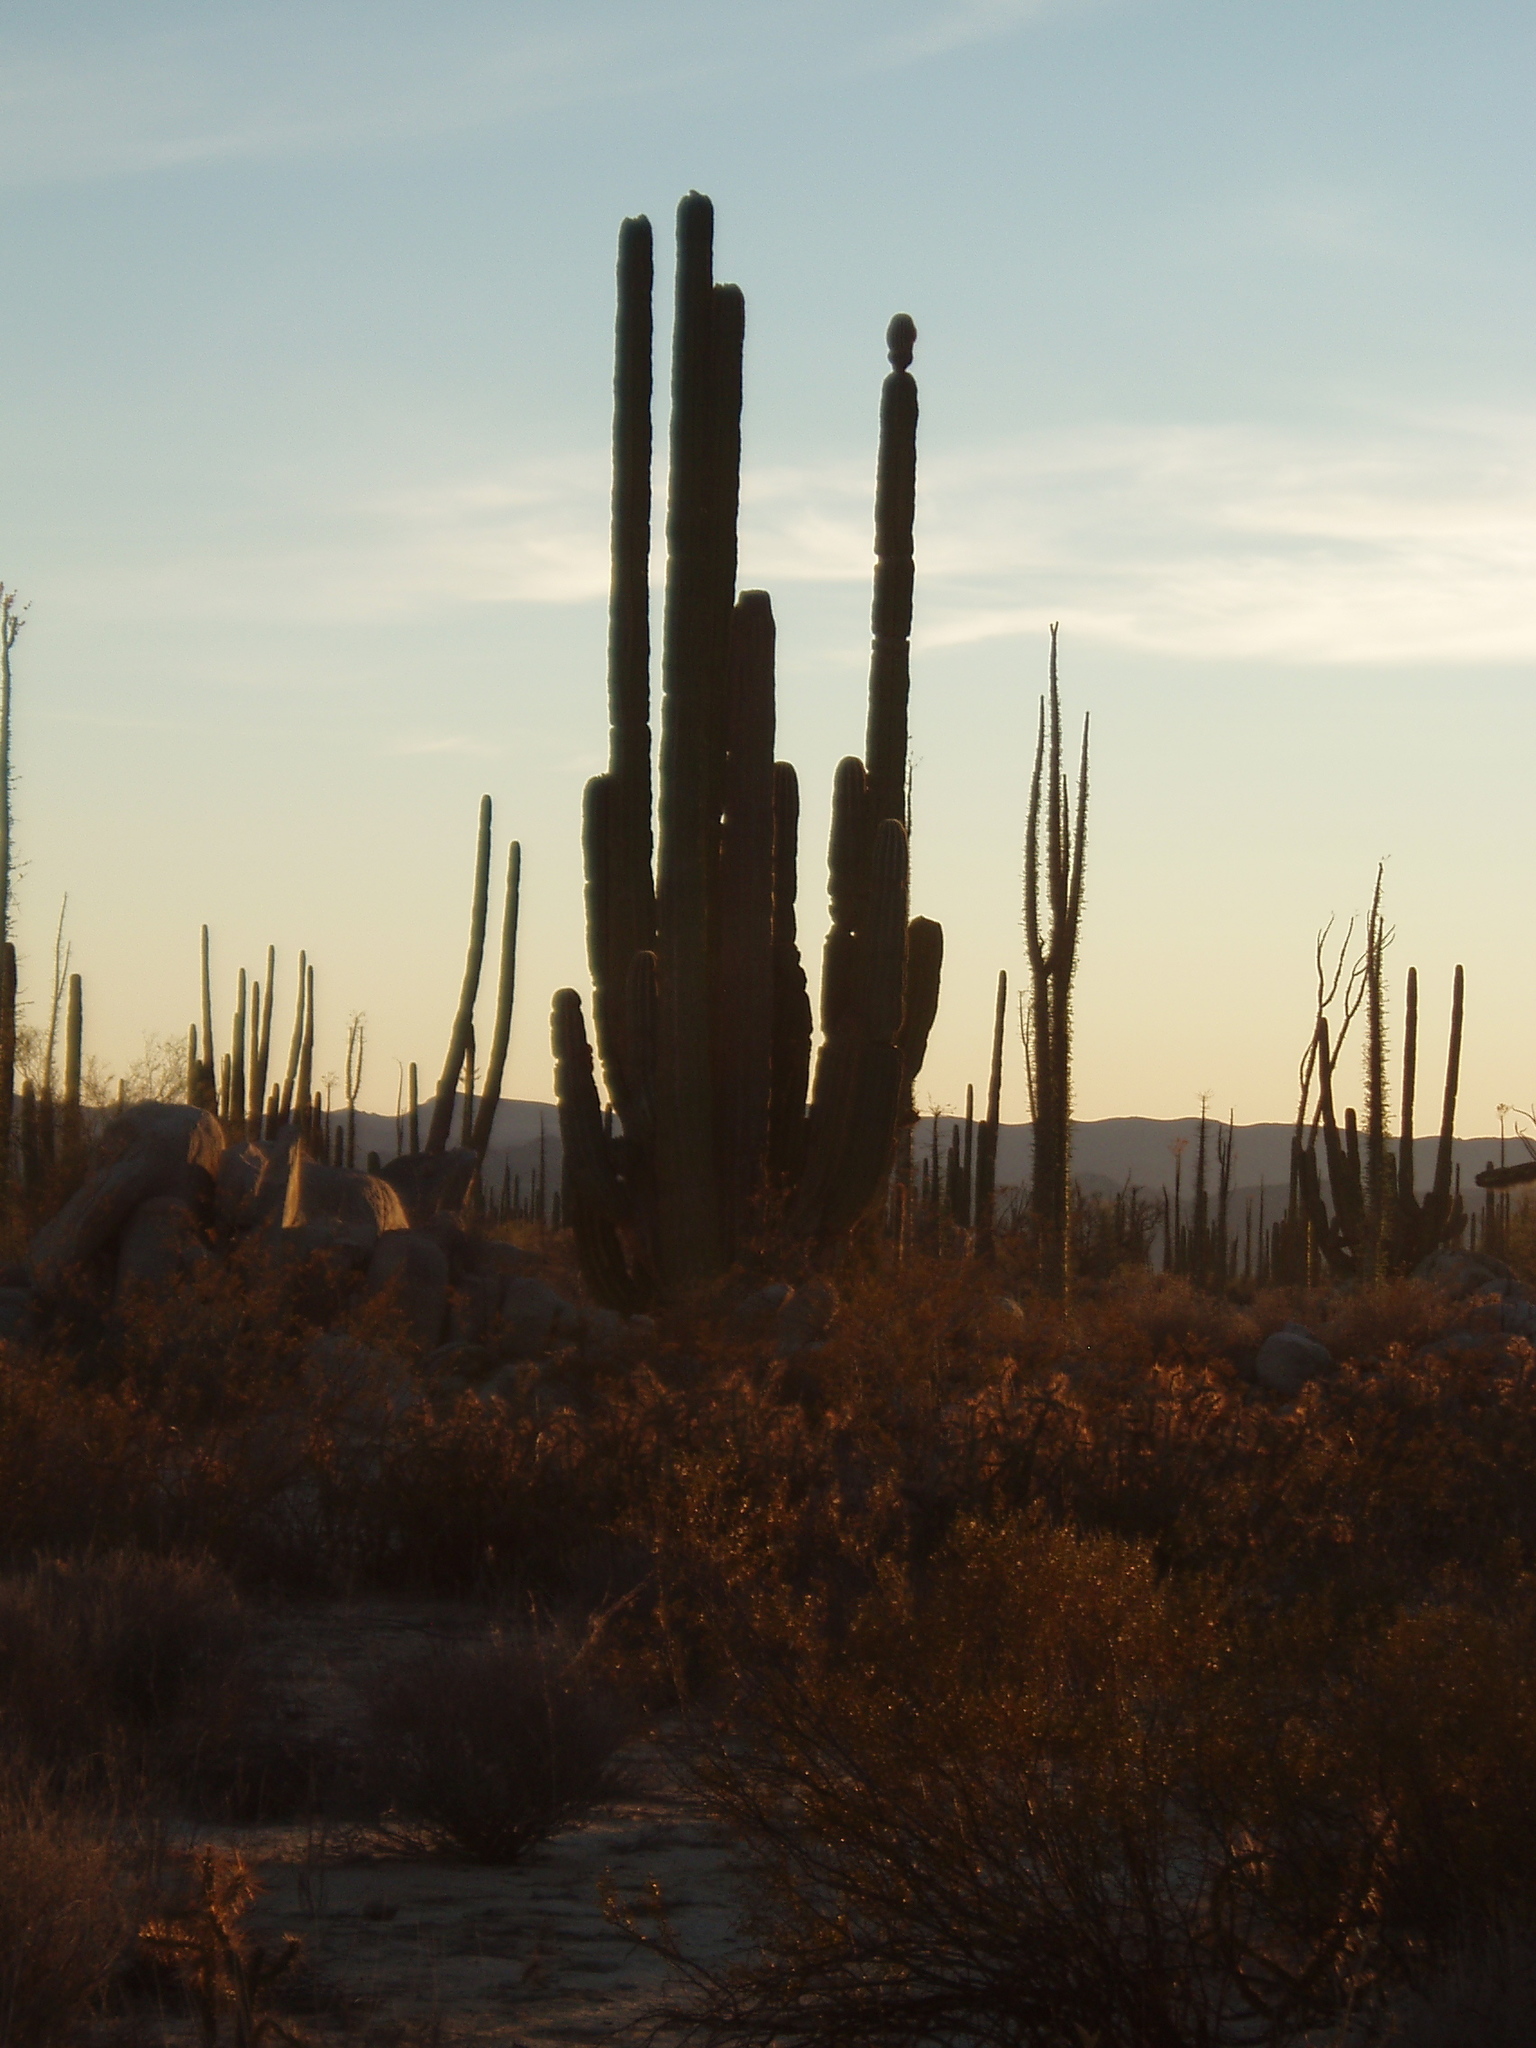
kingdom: Plantae
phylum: Tracheophyta
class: Magnoliopsida
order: Caryophyllales
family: Cactaceae
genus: Pachycereus
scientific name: Pachycereus pringlei
